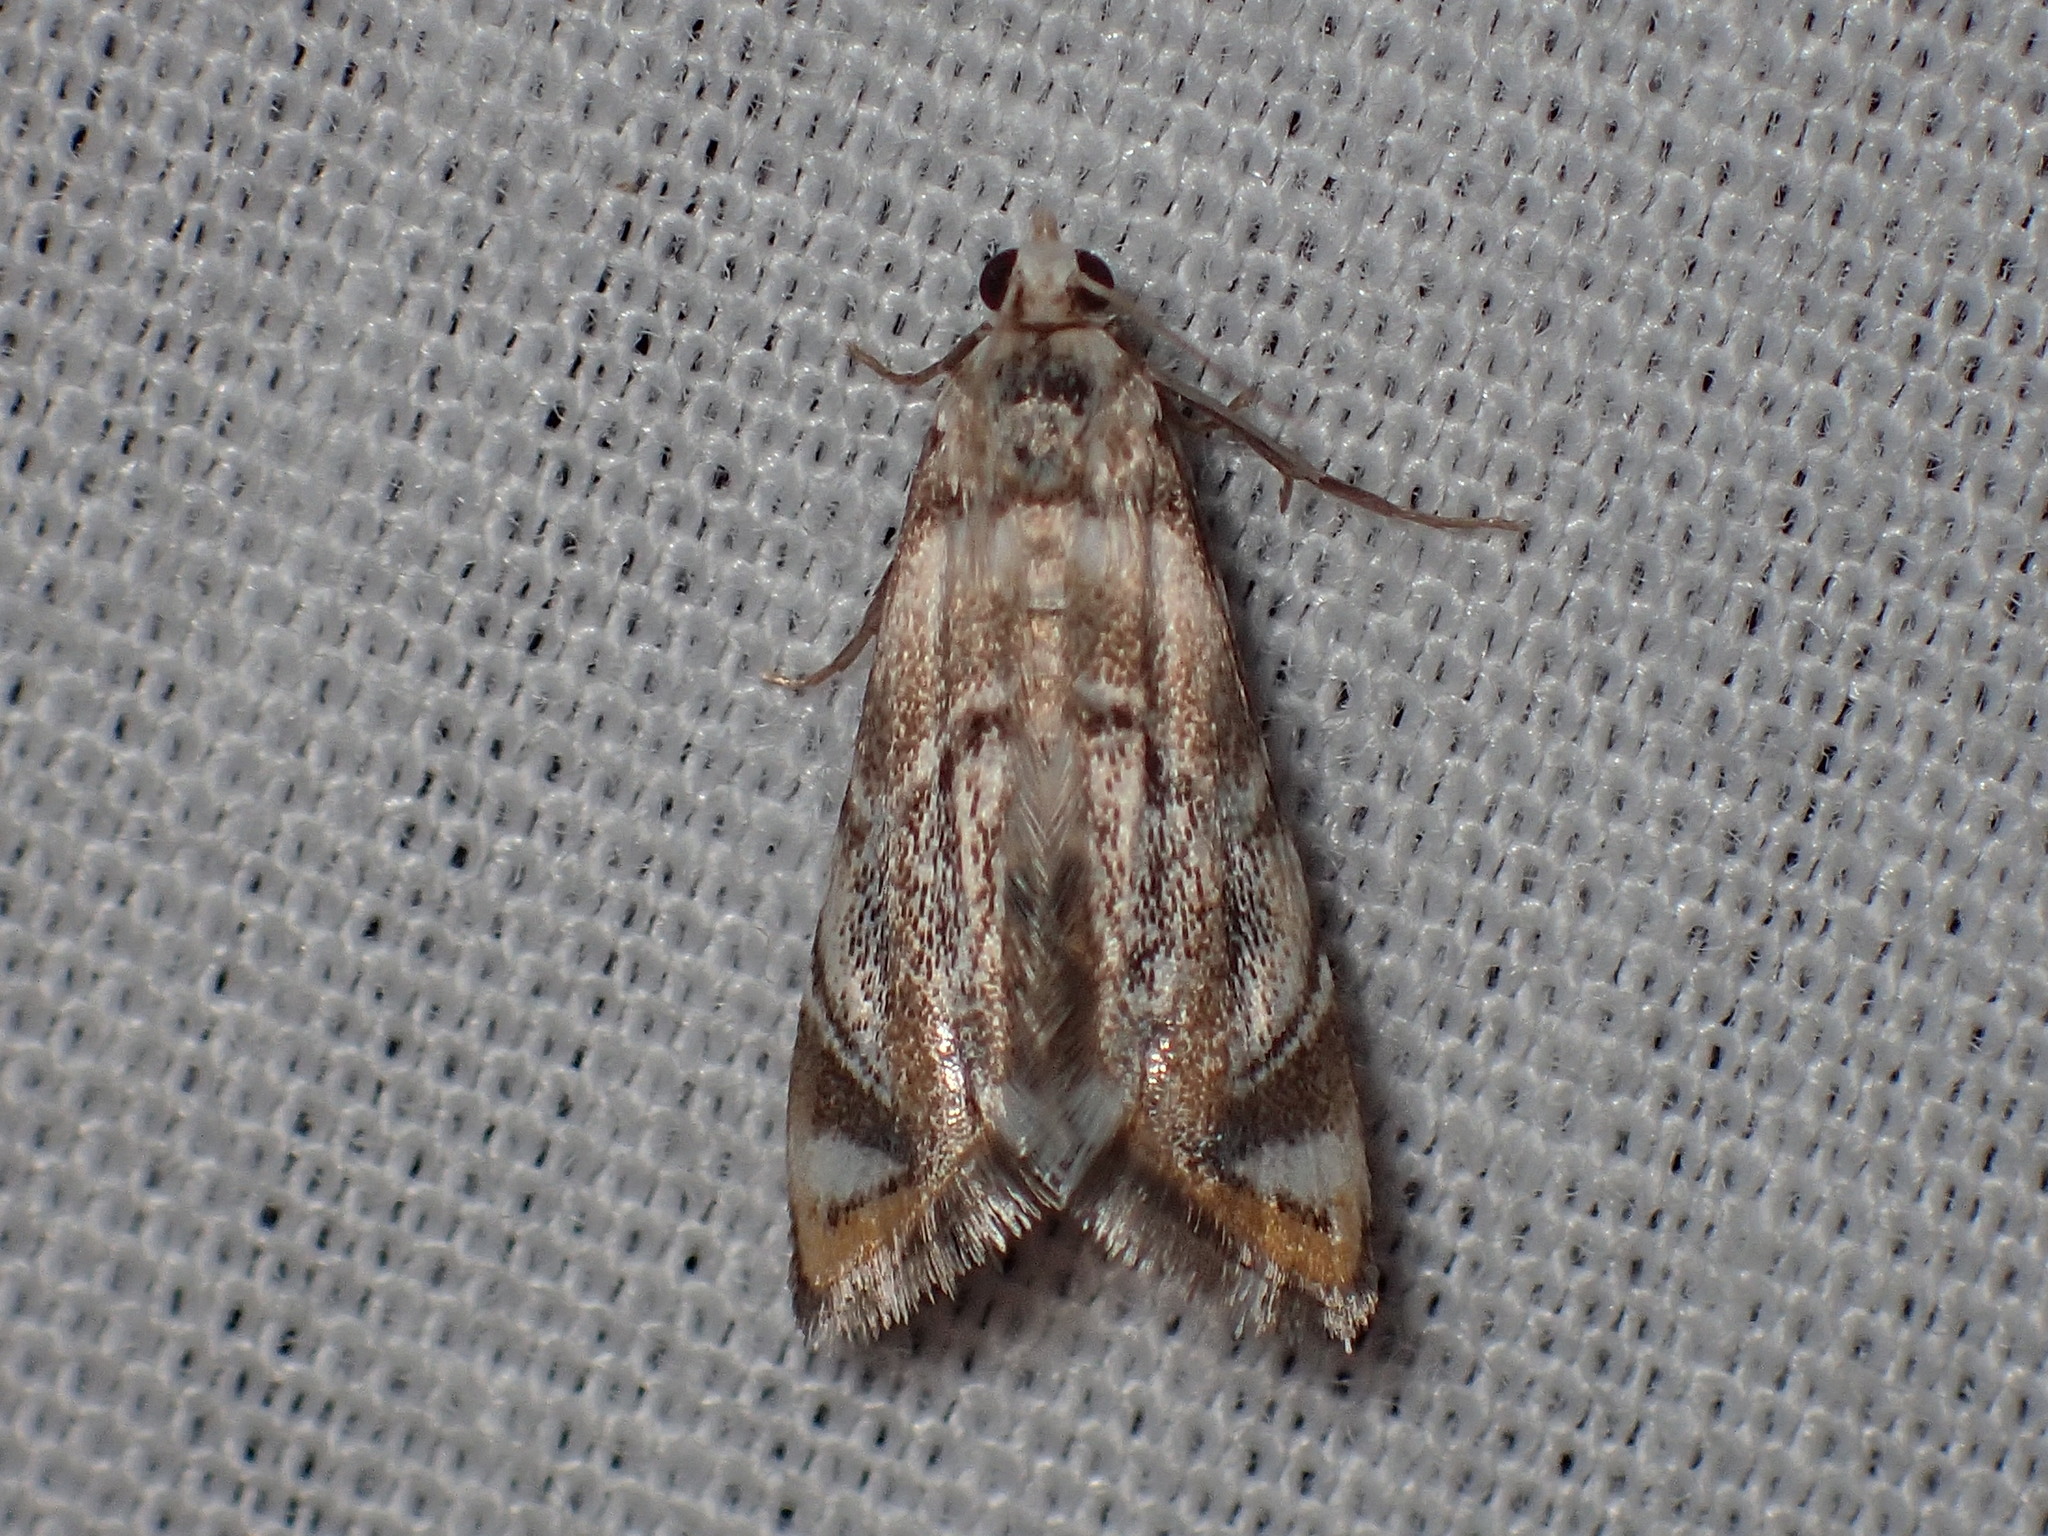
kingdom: Animalia
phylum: Arthropoda
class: Insecta
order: Lepidoptera
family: Crambidae
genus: Eoparargyractis
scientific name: Eoparargyractis irroratalis
